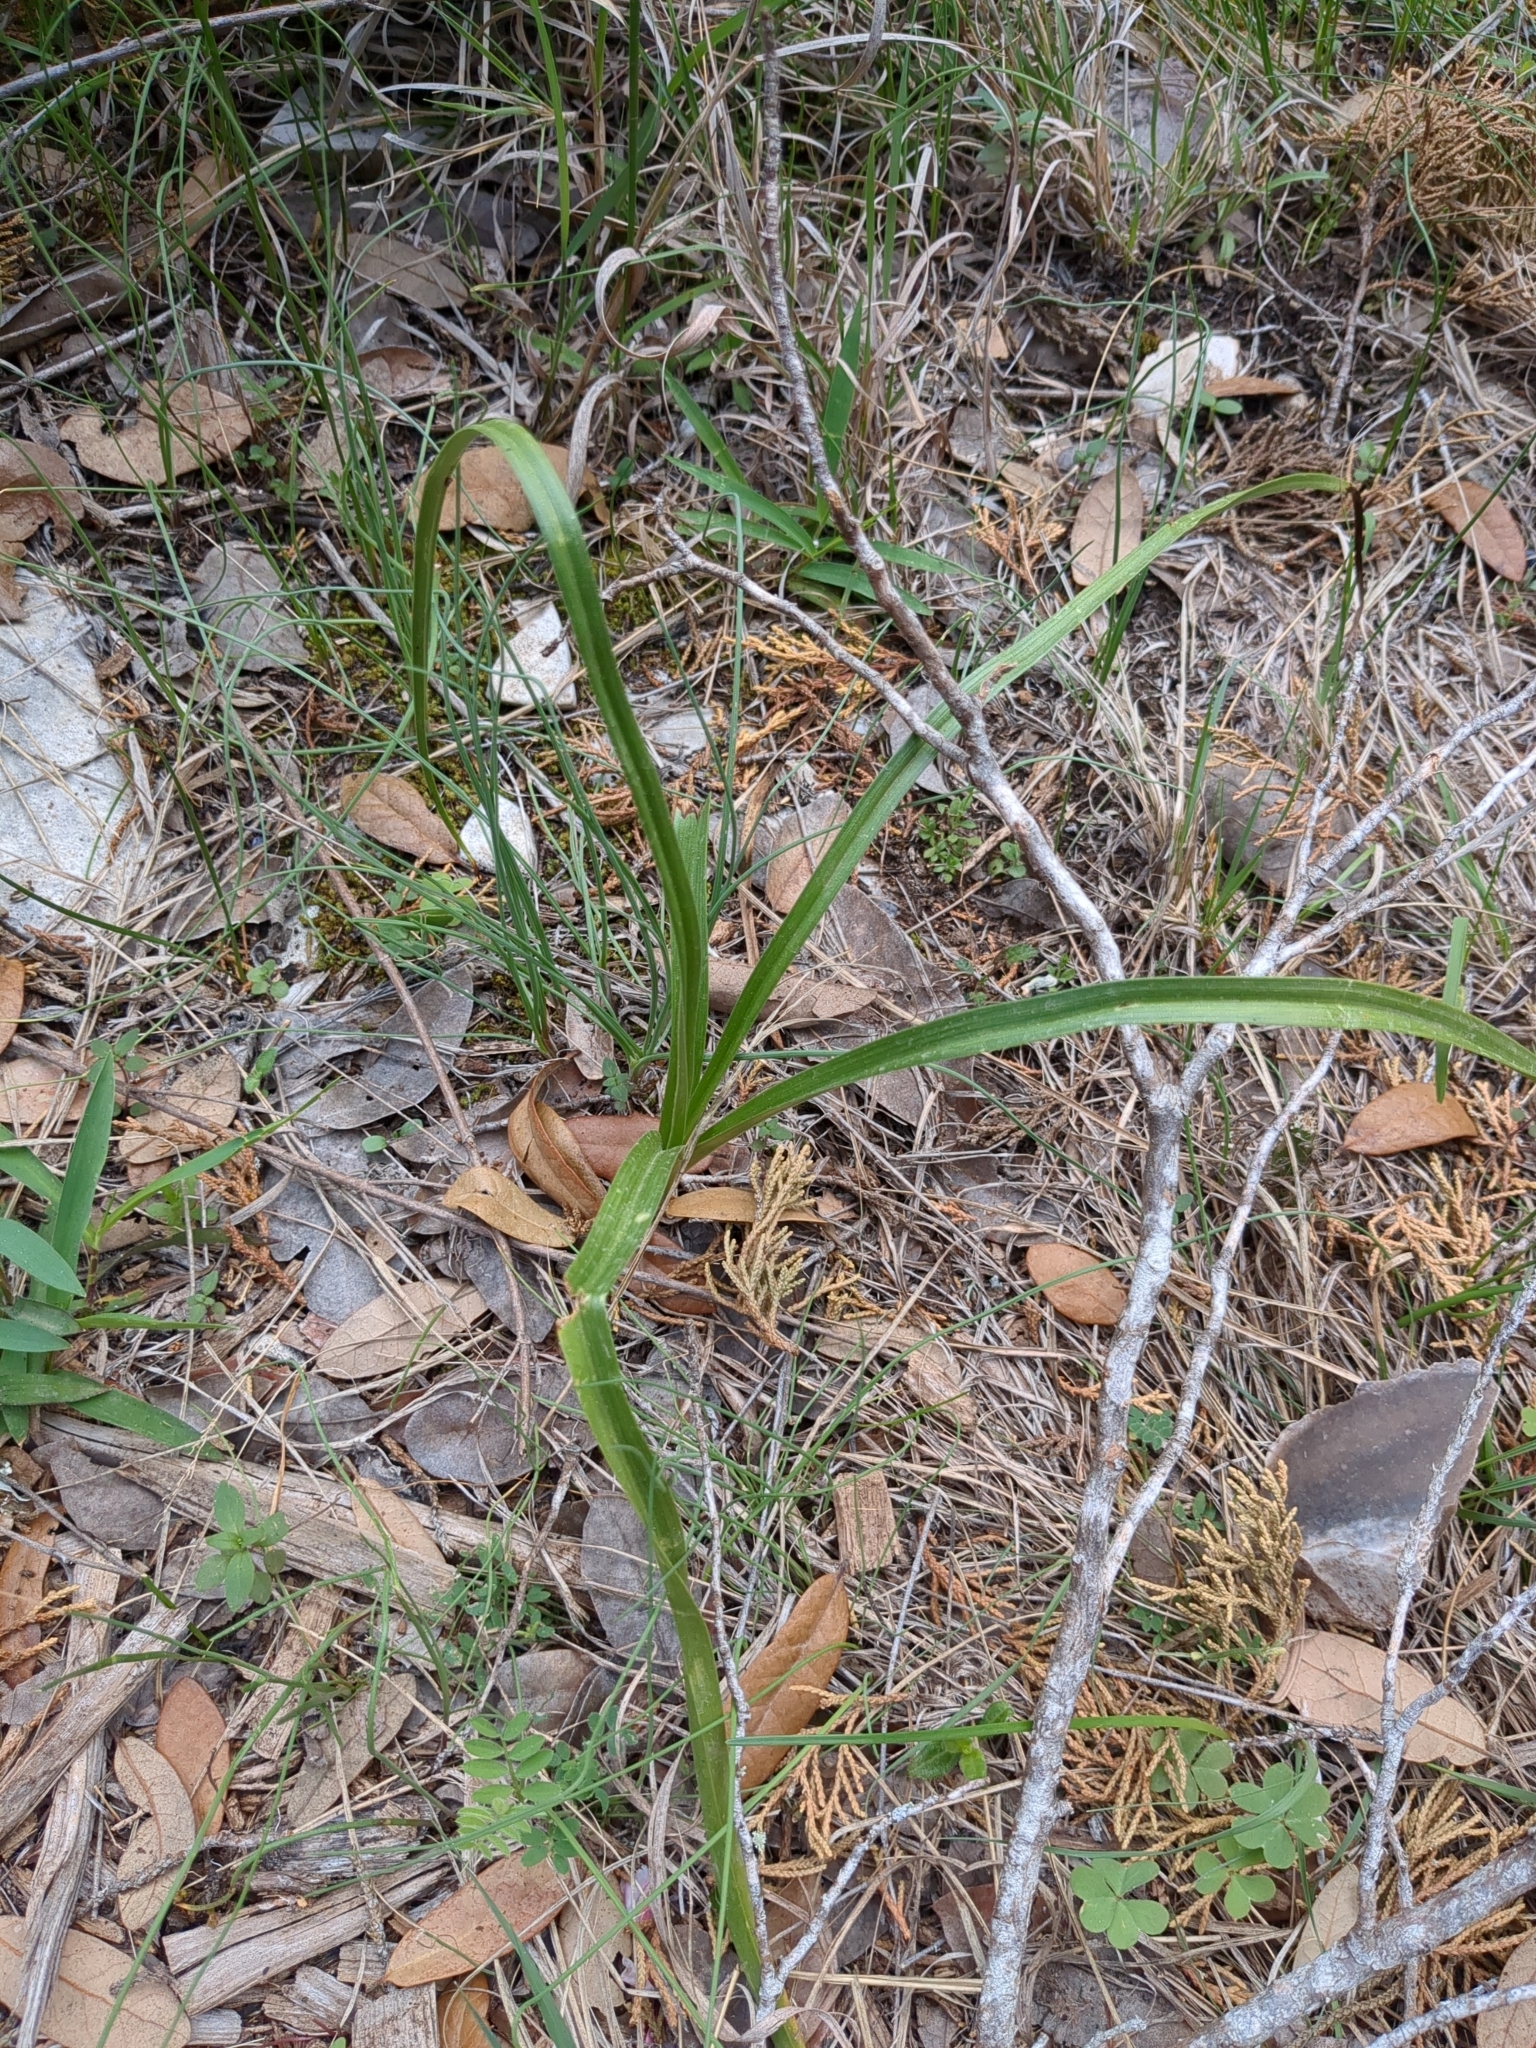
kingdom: Plantae
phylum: Tracheophyta
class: Liliopsida
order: Liliales
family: Melanthiaceae
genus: Toxicoscordion
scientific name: Toxicoscordion nuttallii
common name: Poison sego
